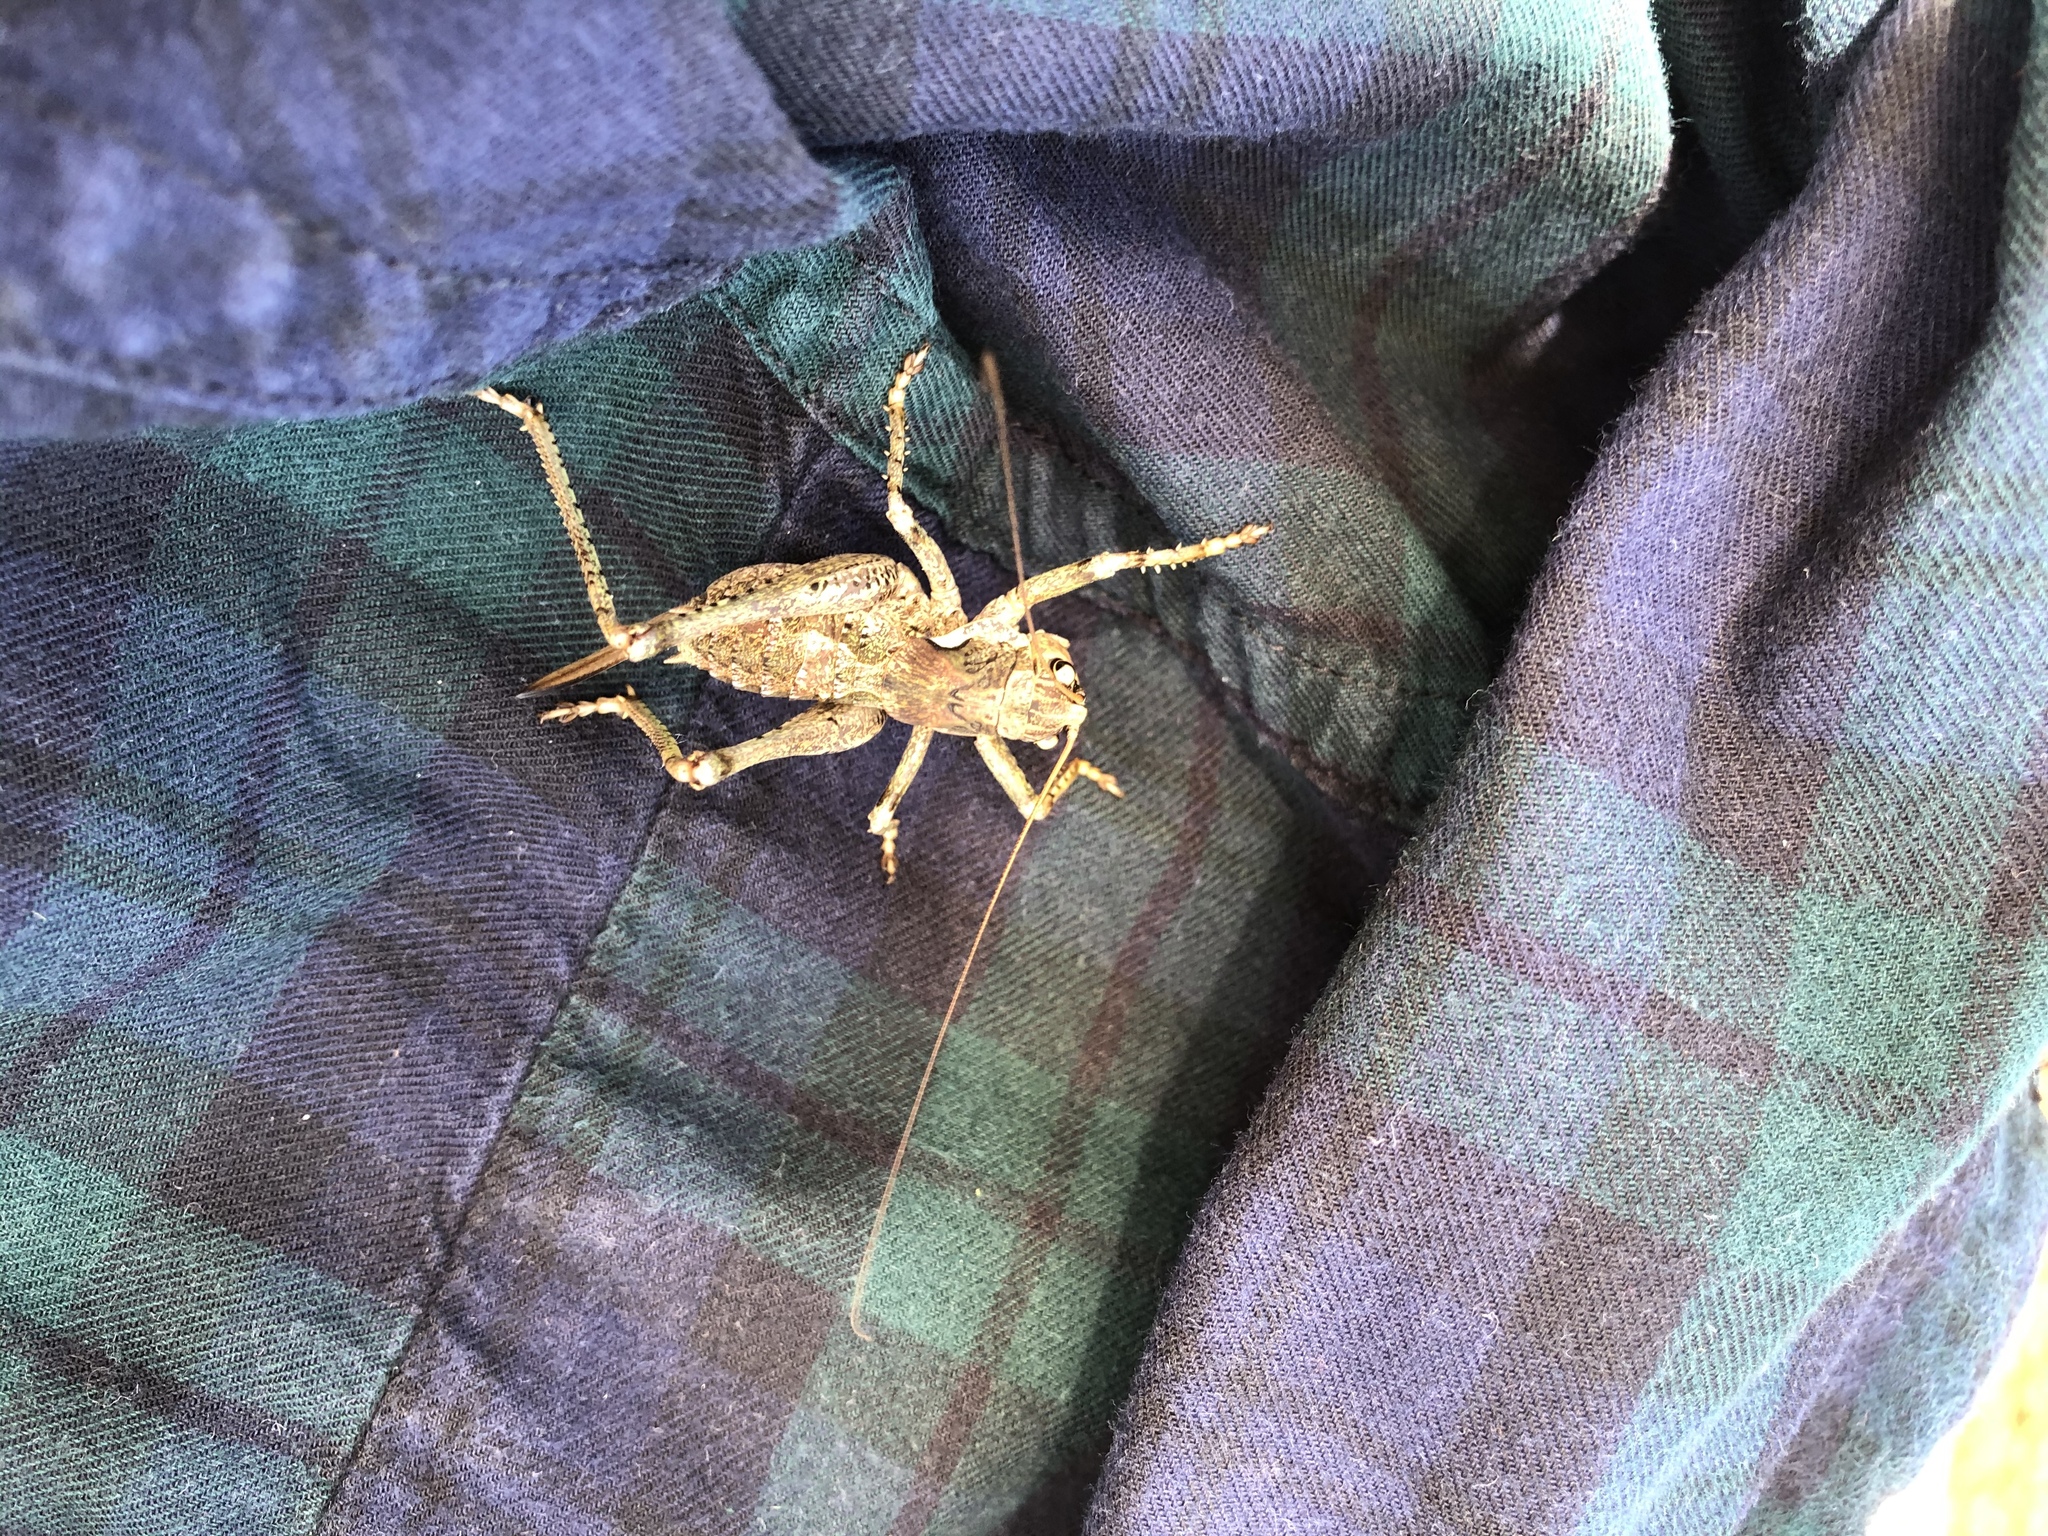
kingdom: Animalia
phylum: Arthropoda
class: Insecta
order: Orthoptera
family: Tettigoniidae
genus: Anadrymadusa
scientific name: Anadrymadusa brevipennis
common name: Short-winged tonged bush-cricket
